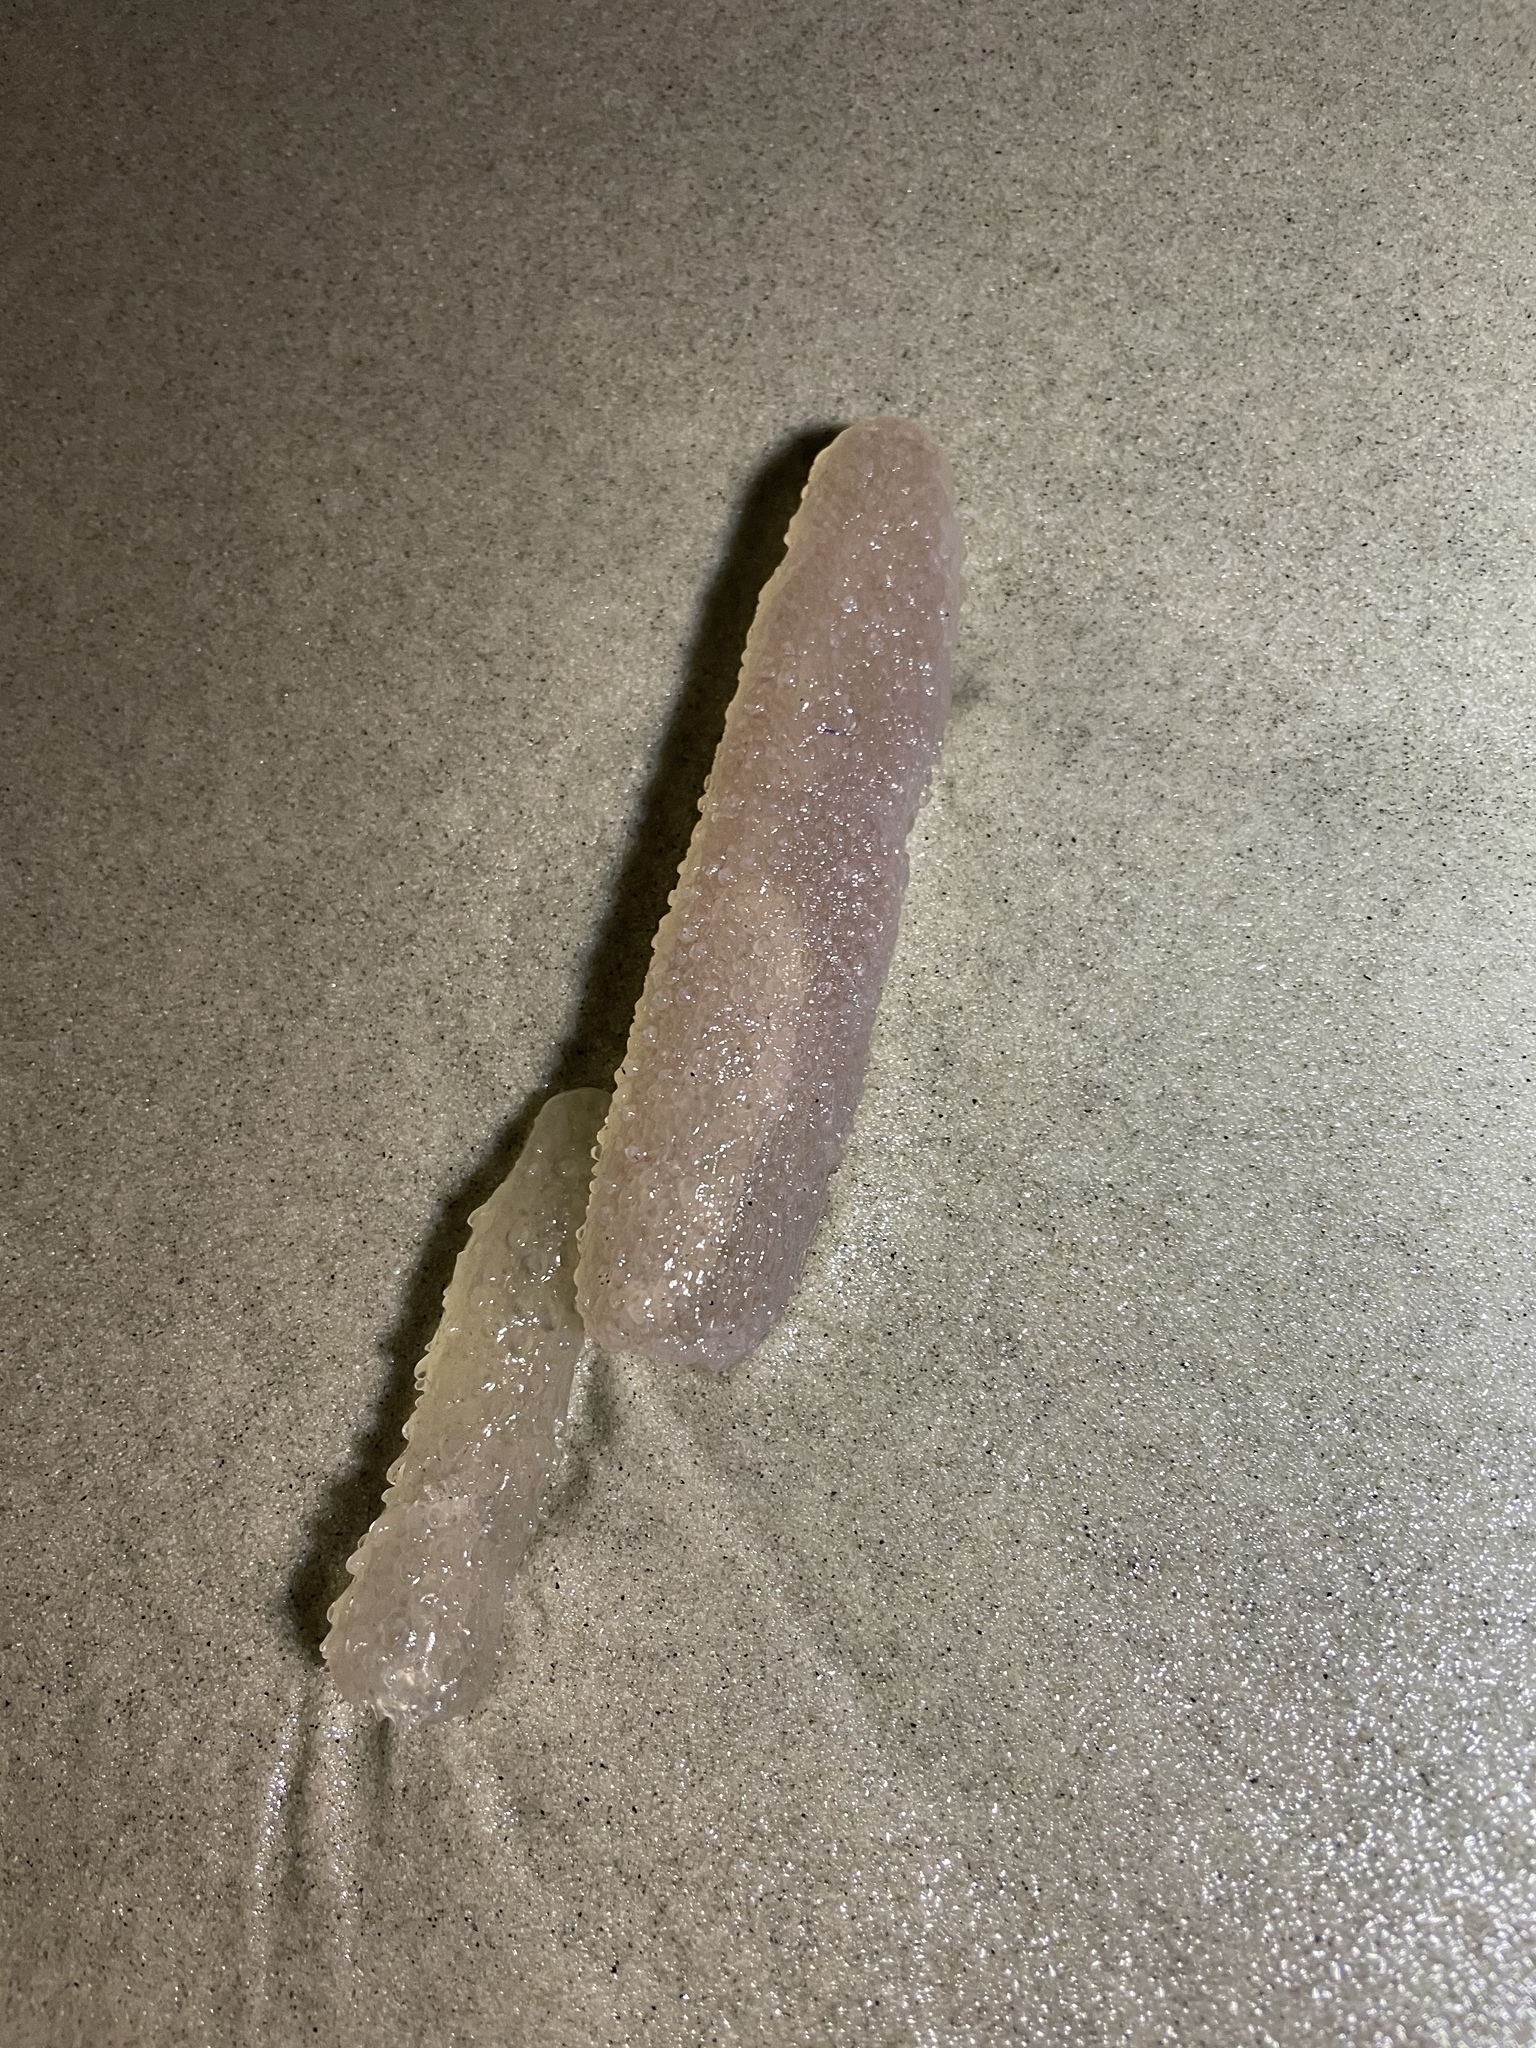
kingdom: Animalia
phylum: Chordata
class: Thaliacea
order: Pyrosomatida
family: Pyrosomatidae
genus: Pyrosoma
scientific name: Pyrosoma atlanticum
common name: Atlantic pyrosomes
